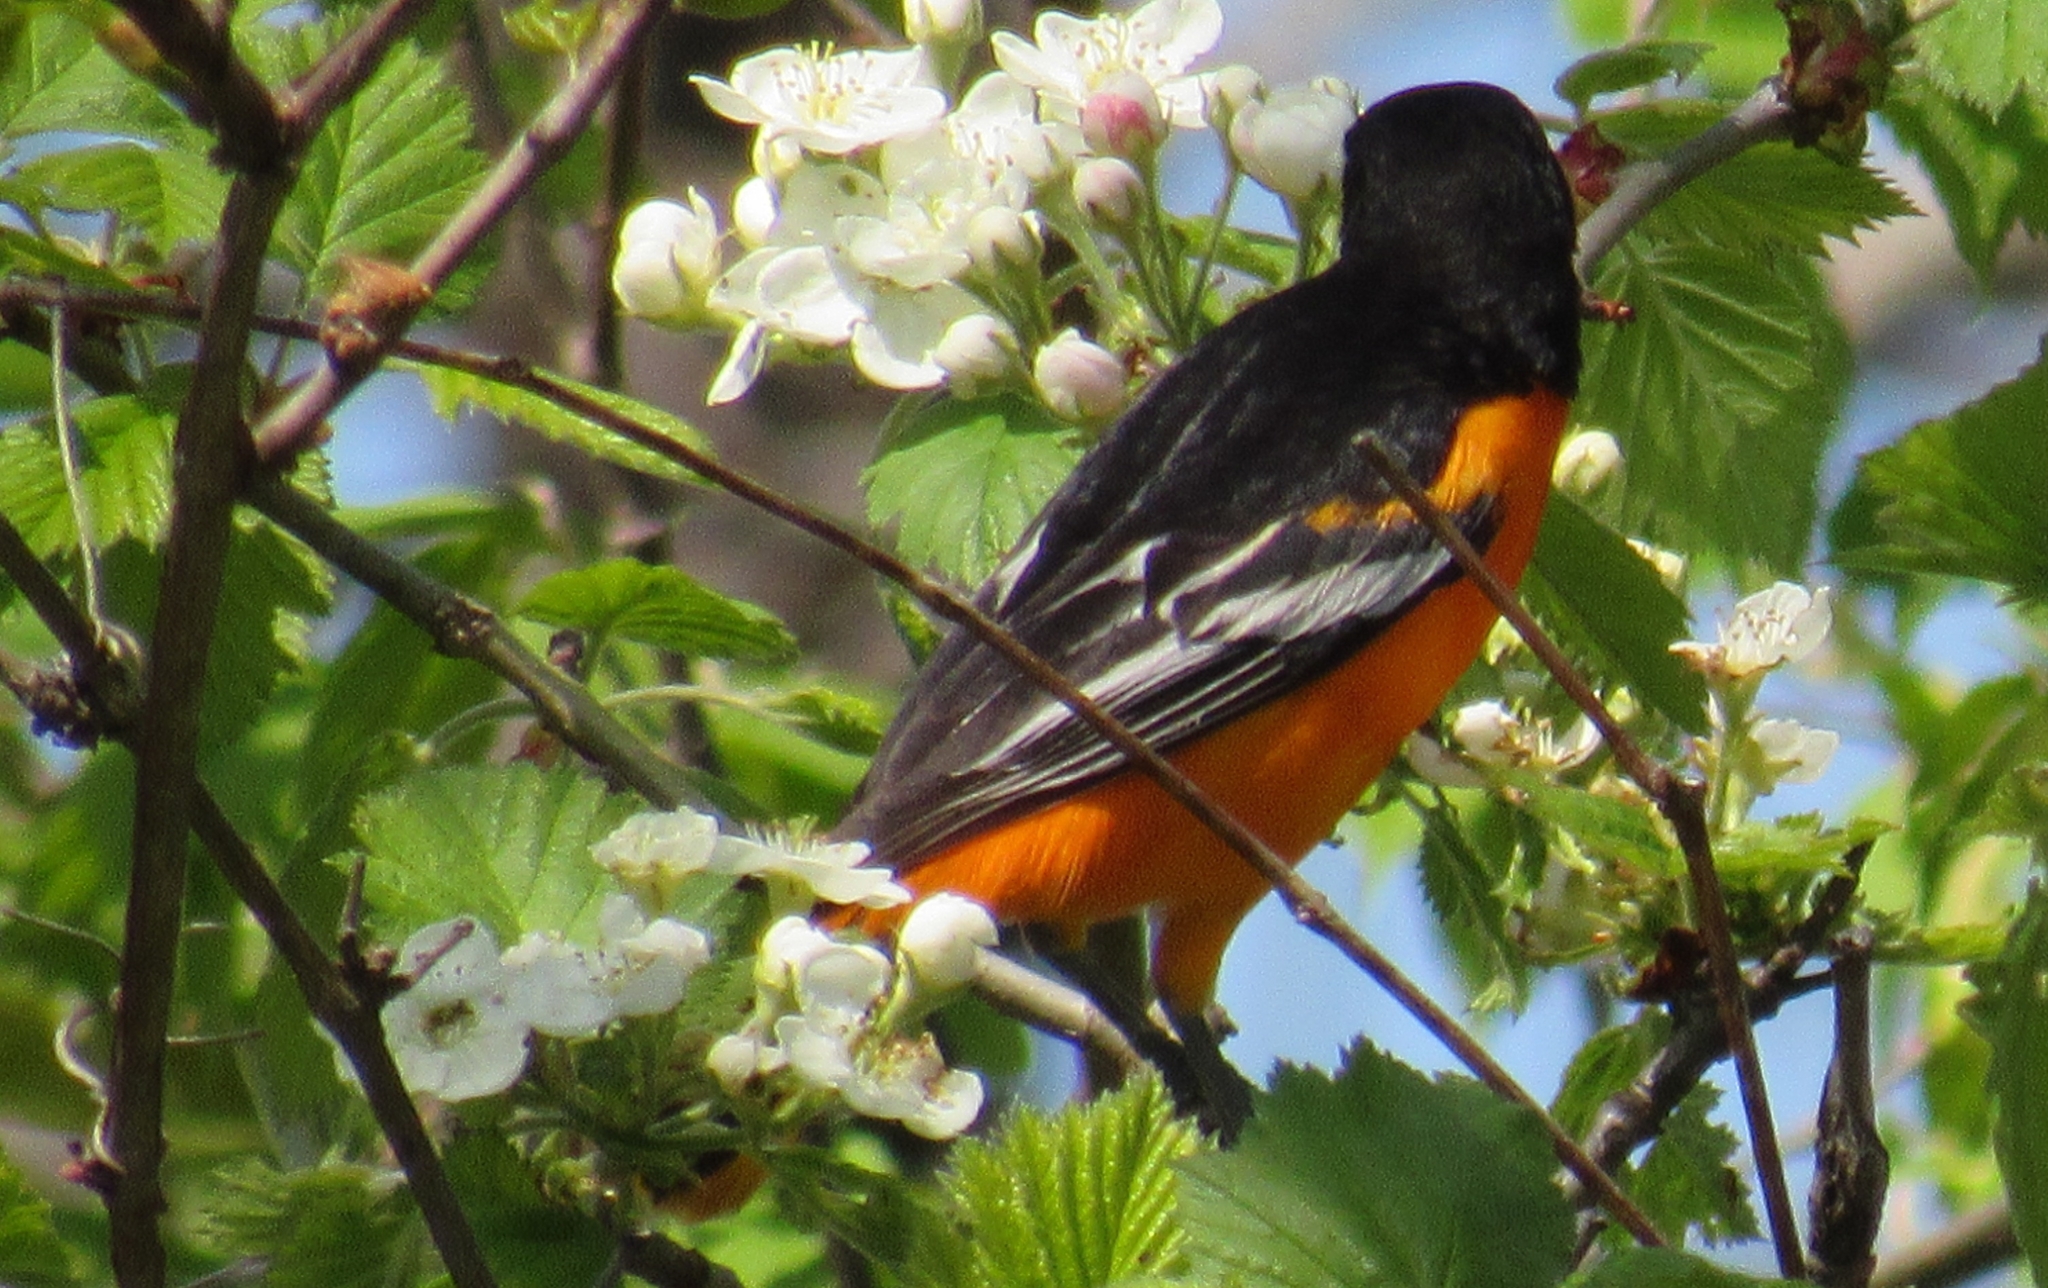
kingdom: Animalia
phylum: Chordata
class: Aves
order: Passeriformes
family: Icteridae
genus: Icterus
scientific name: Icterus galbula
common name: Baltimore oriole
